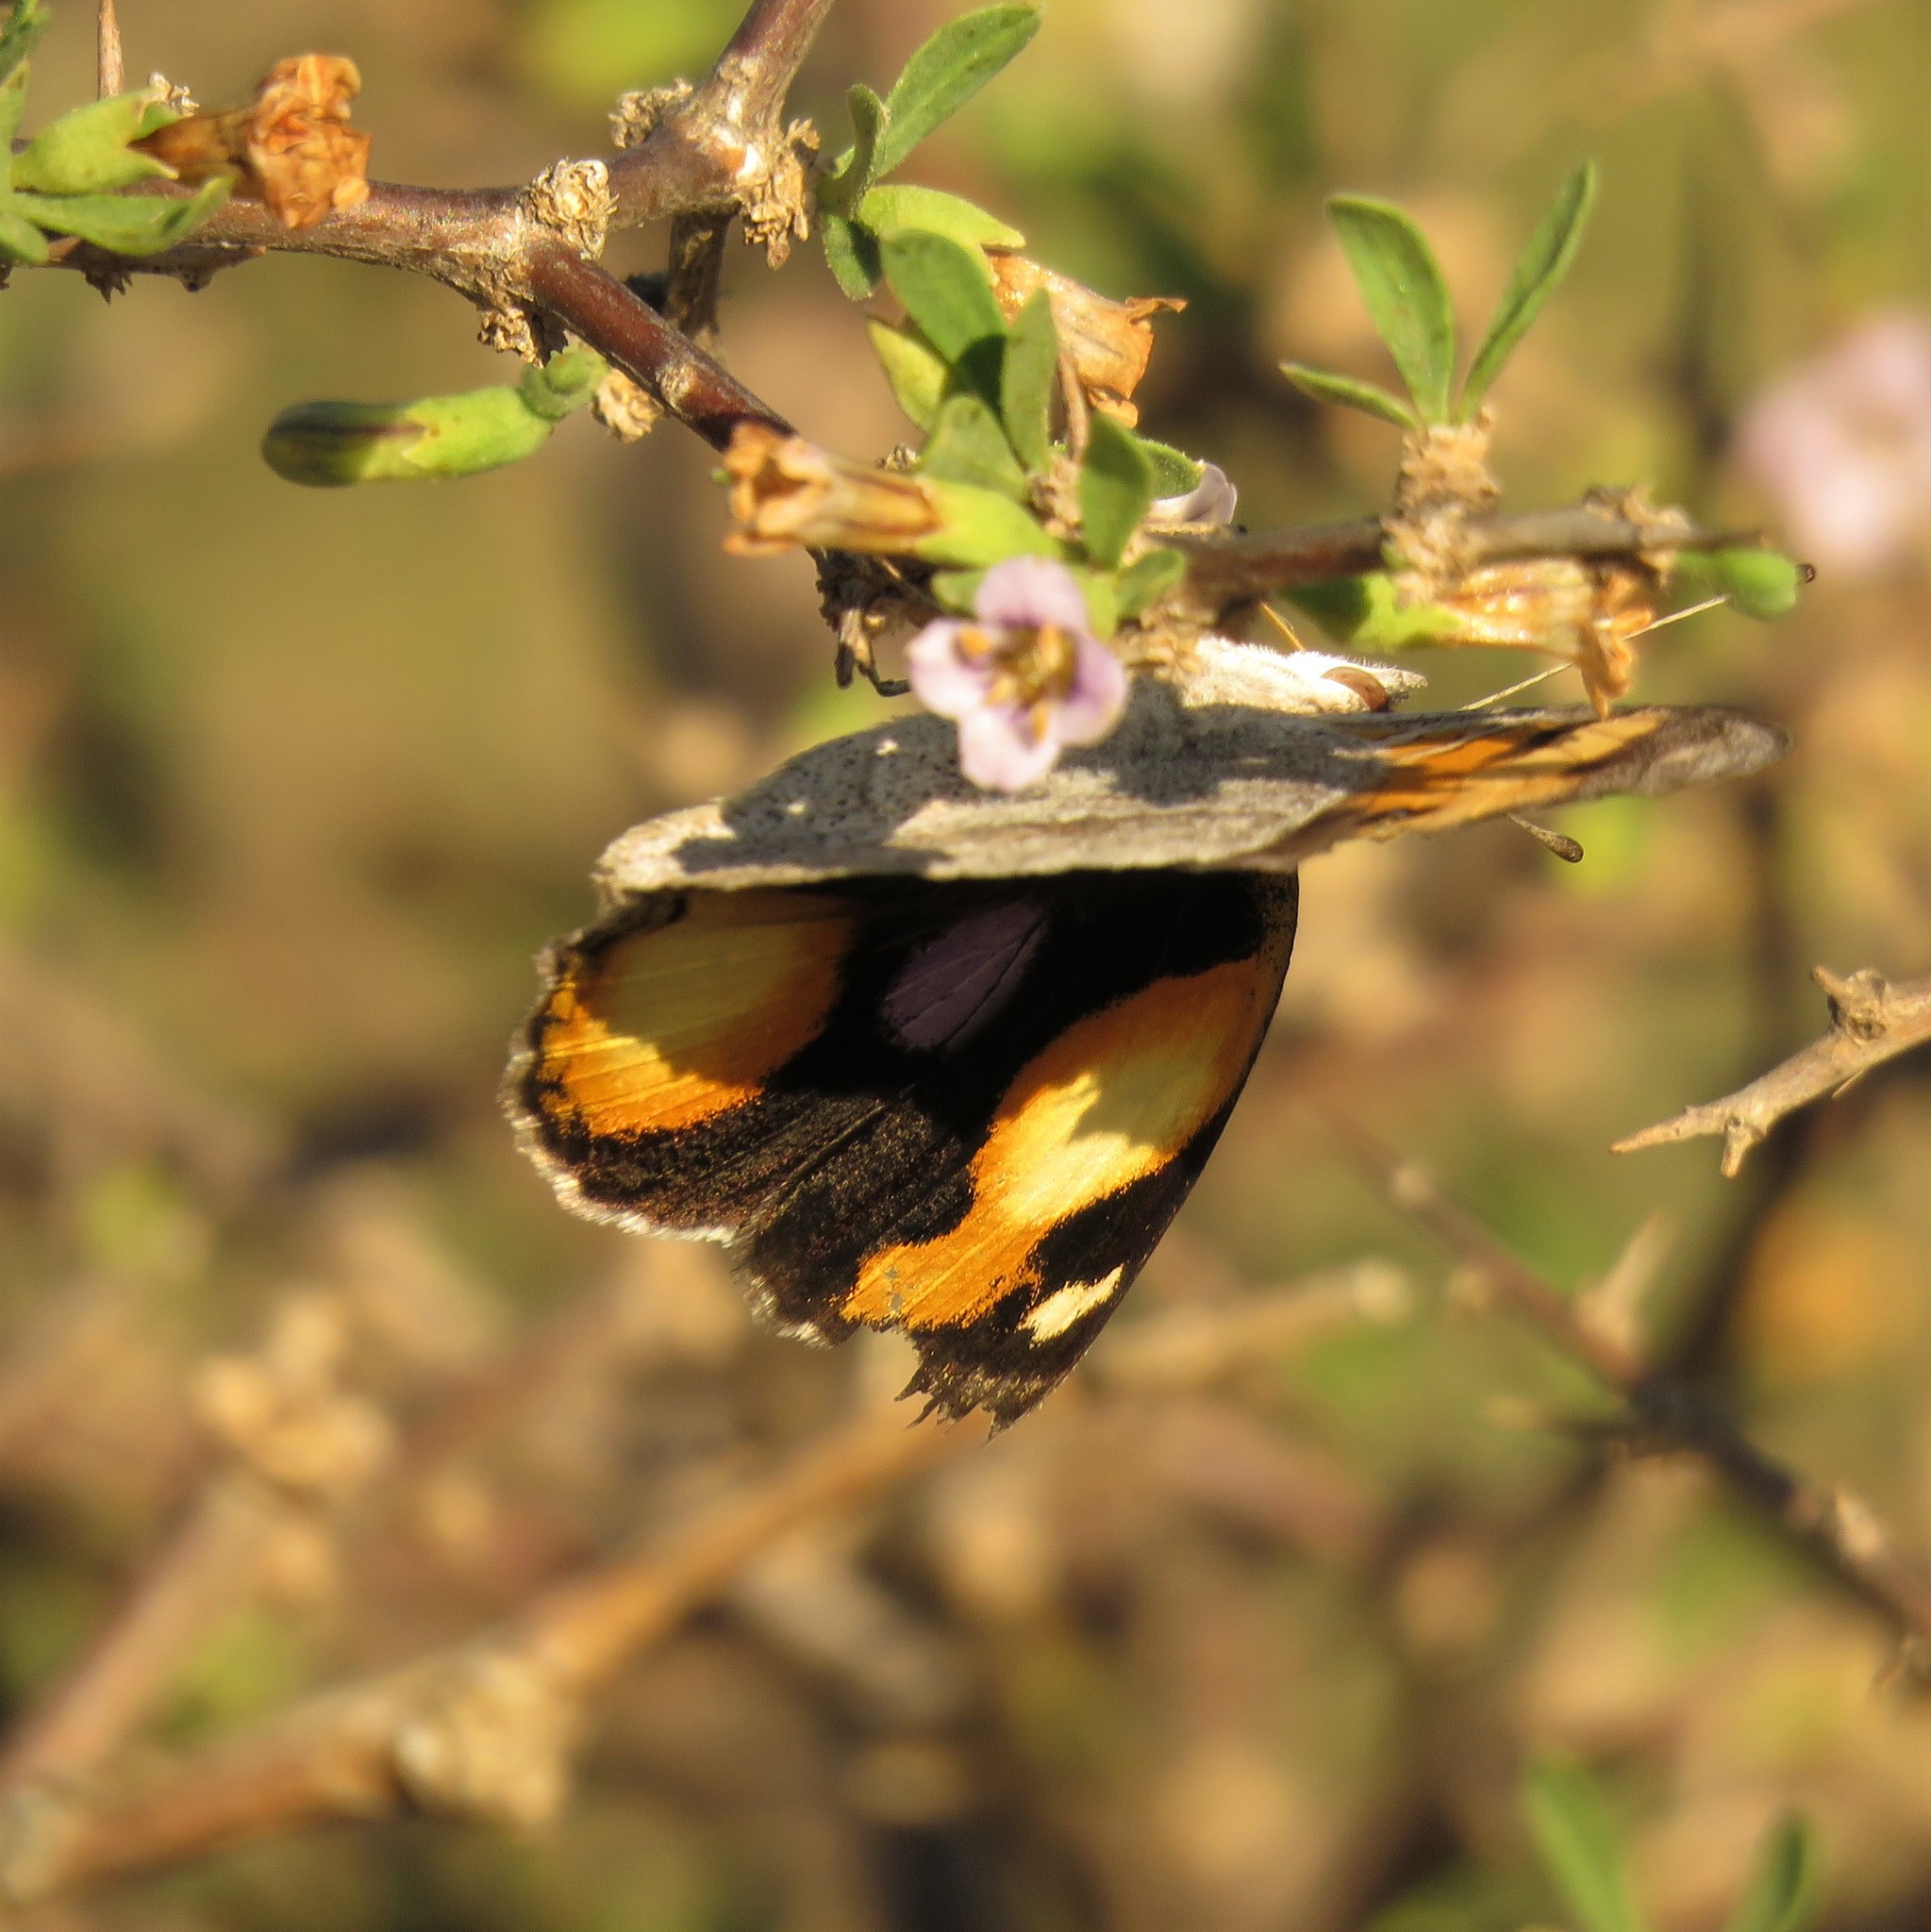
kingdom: Animalia
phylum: Arthropoda
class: Insecta
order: Lepidoptera
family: Nymphalidae
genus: Junonia
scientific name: Junonia hierta
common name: Yellow pansy
